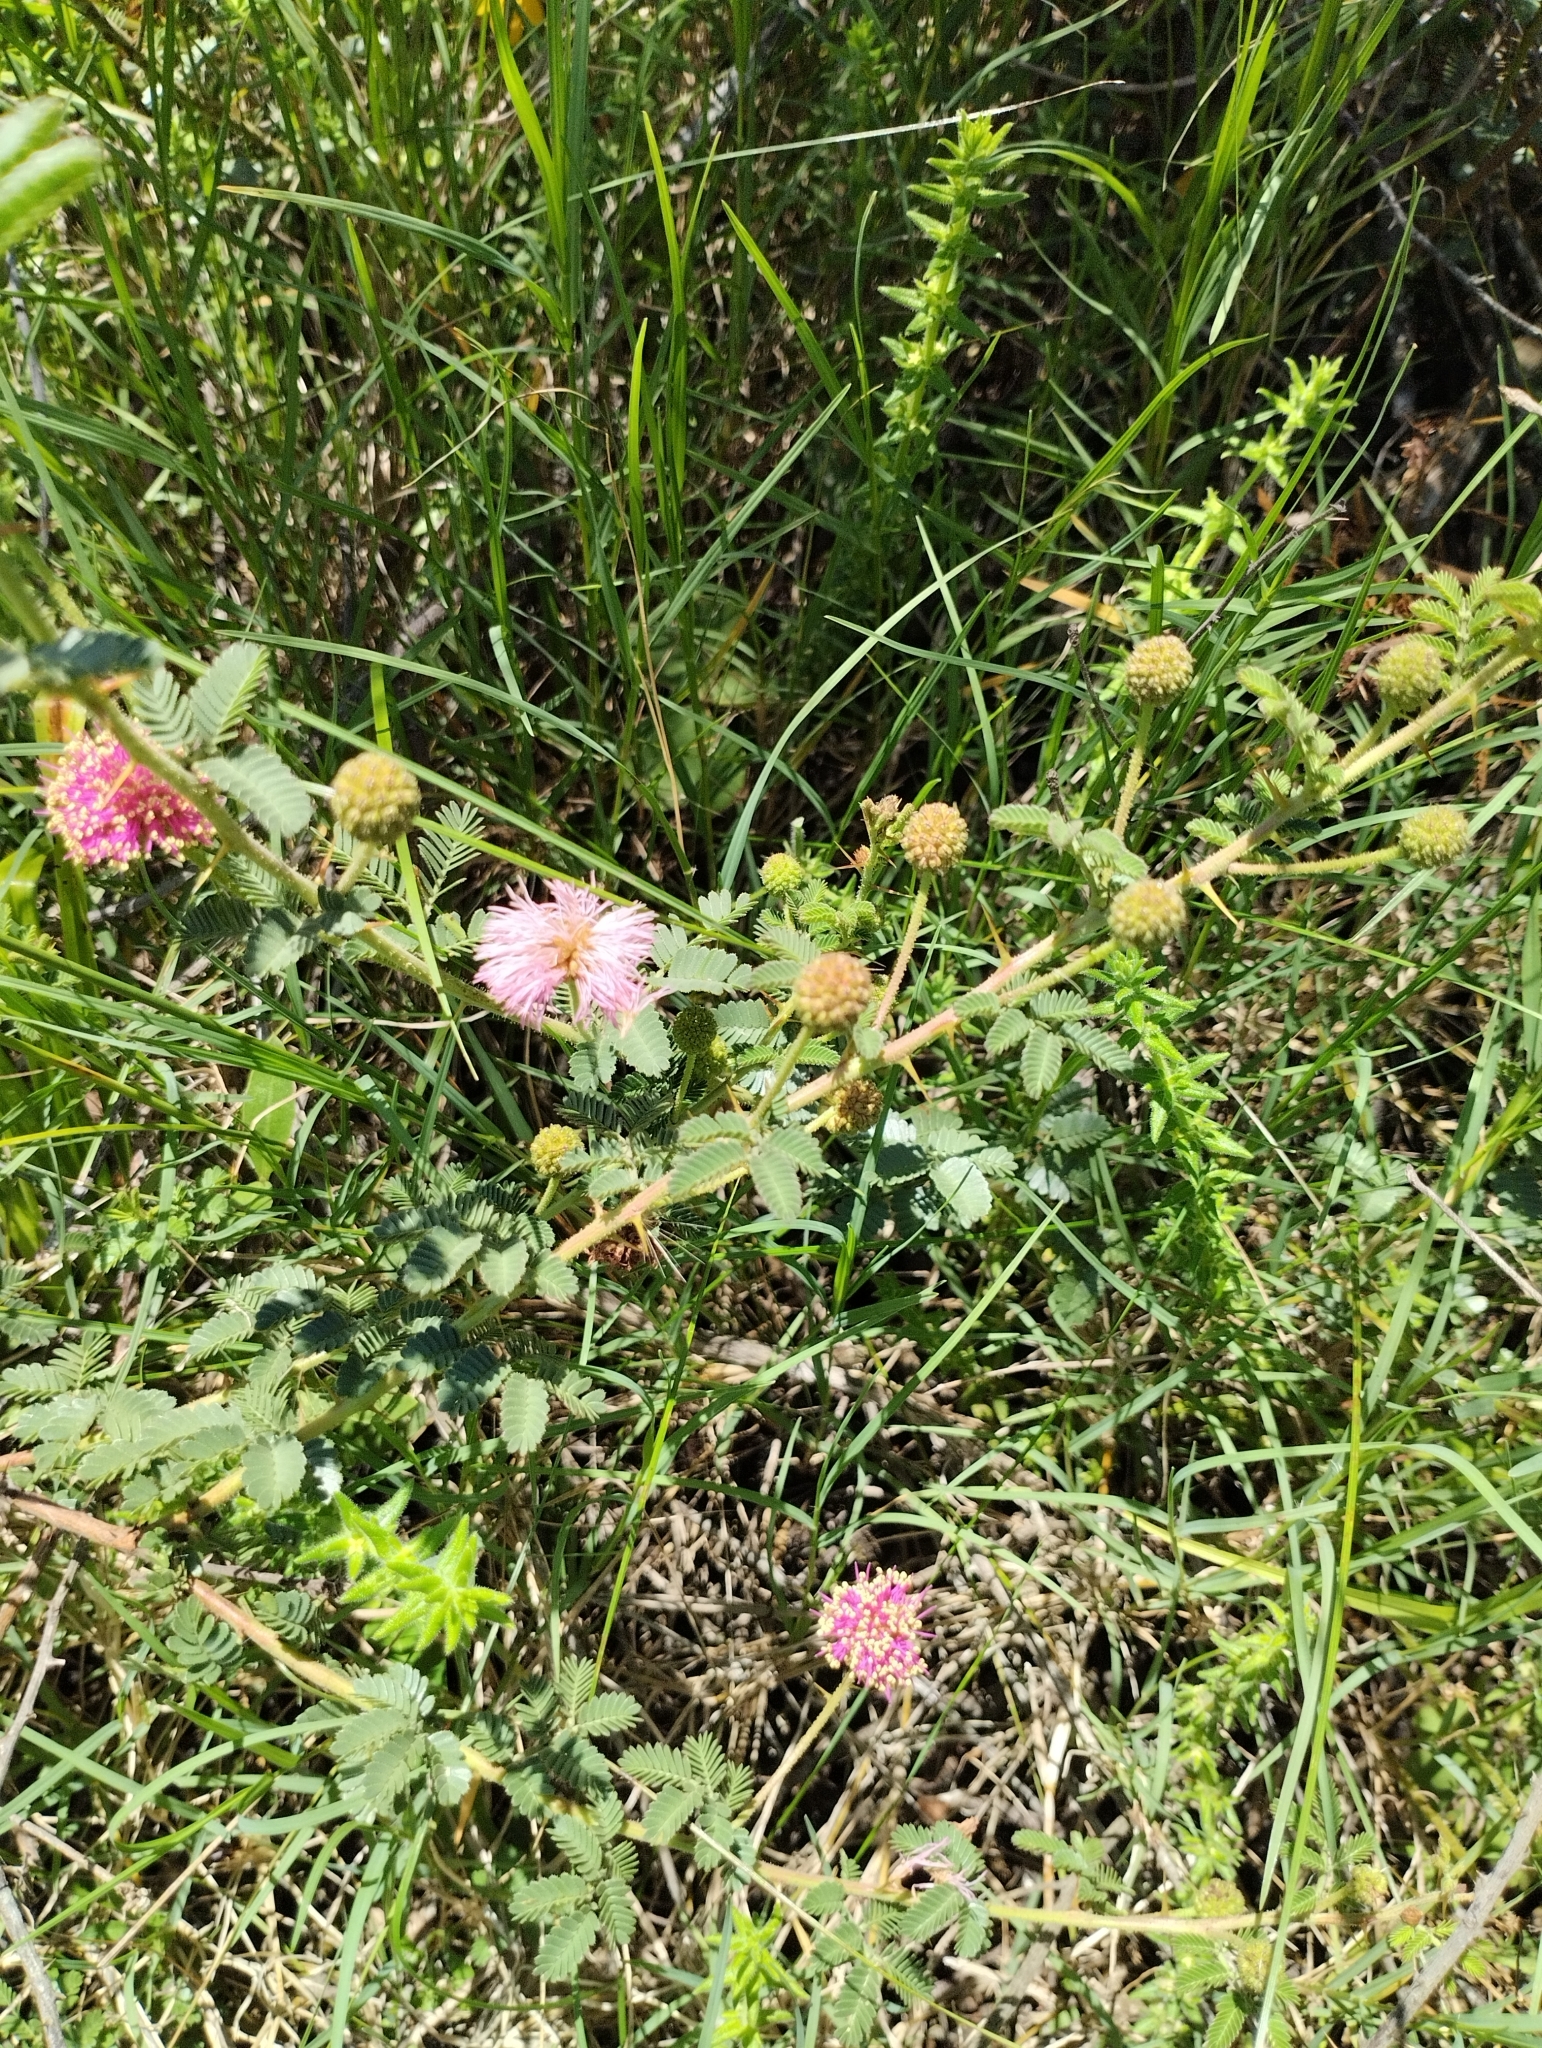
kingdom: Plantae
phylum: Tracheophyta
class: Magnoliopsida
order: Fabales
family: Fabaceae
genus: Mimosa
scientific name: Mimosa cruenta
